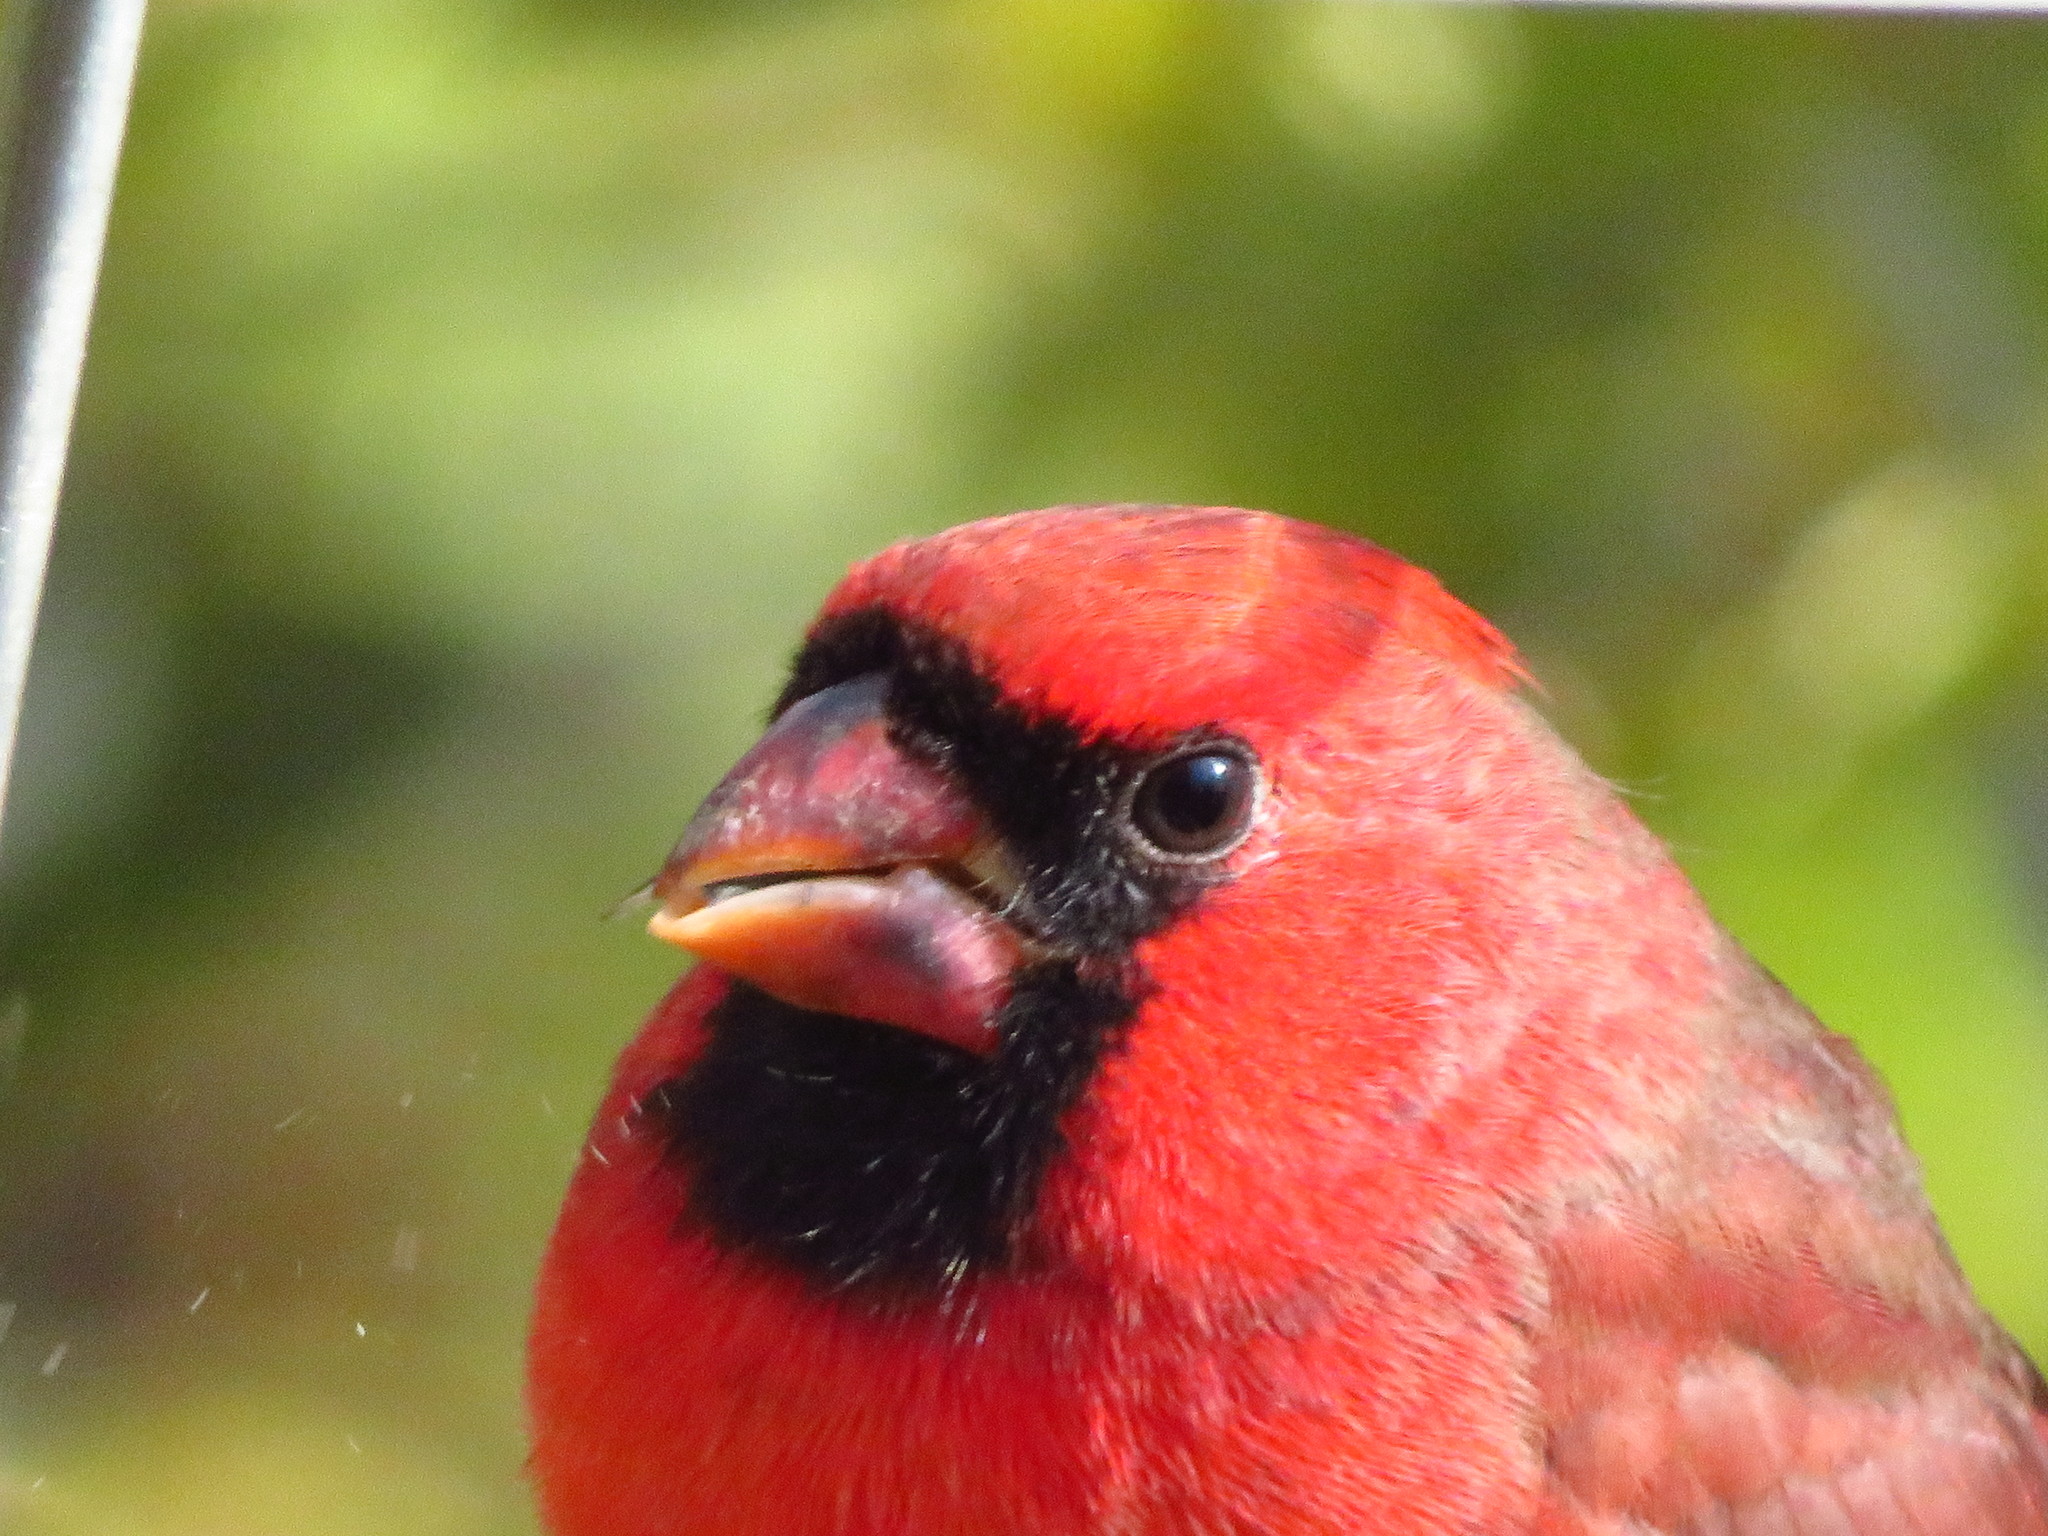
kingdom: Animalia
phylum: Chordata
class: Aves
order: Passeriformes
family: Cardinalidae
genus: Cardinalis
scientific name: Cardinalis cardinalis
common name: Northern cardinal
